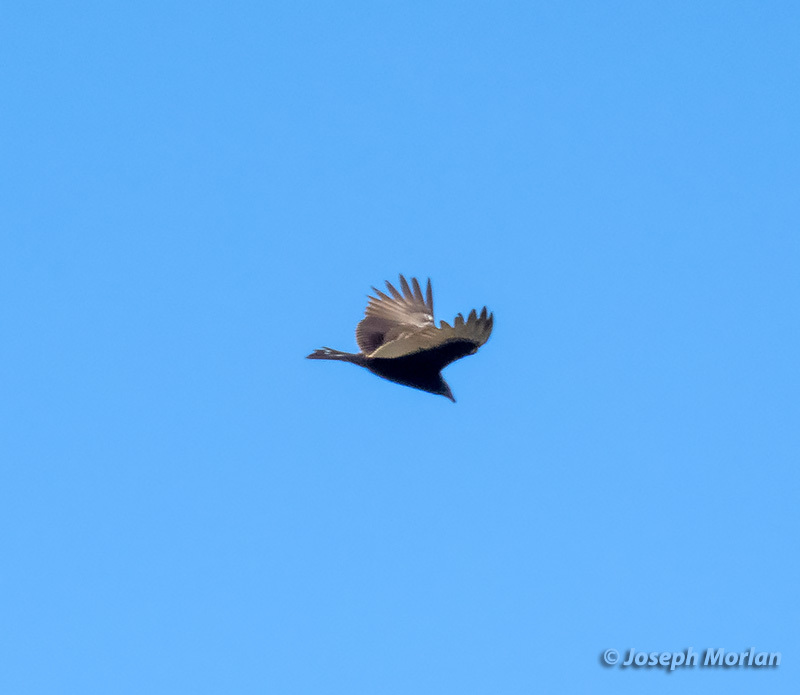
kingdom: Animalia
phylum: Chordata
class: Aves
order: Accipitriformes
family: Cathartidae
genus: Cathartes
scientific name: Cathartes aura
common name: Turkey vulture
